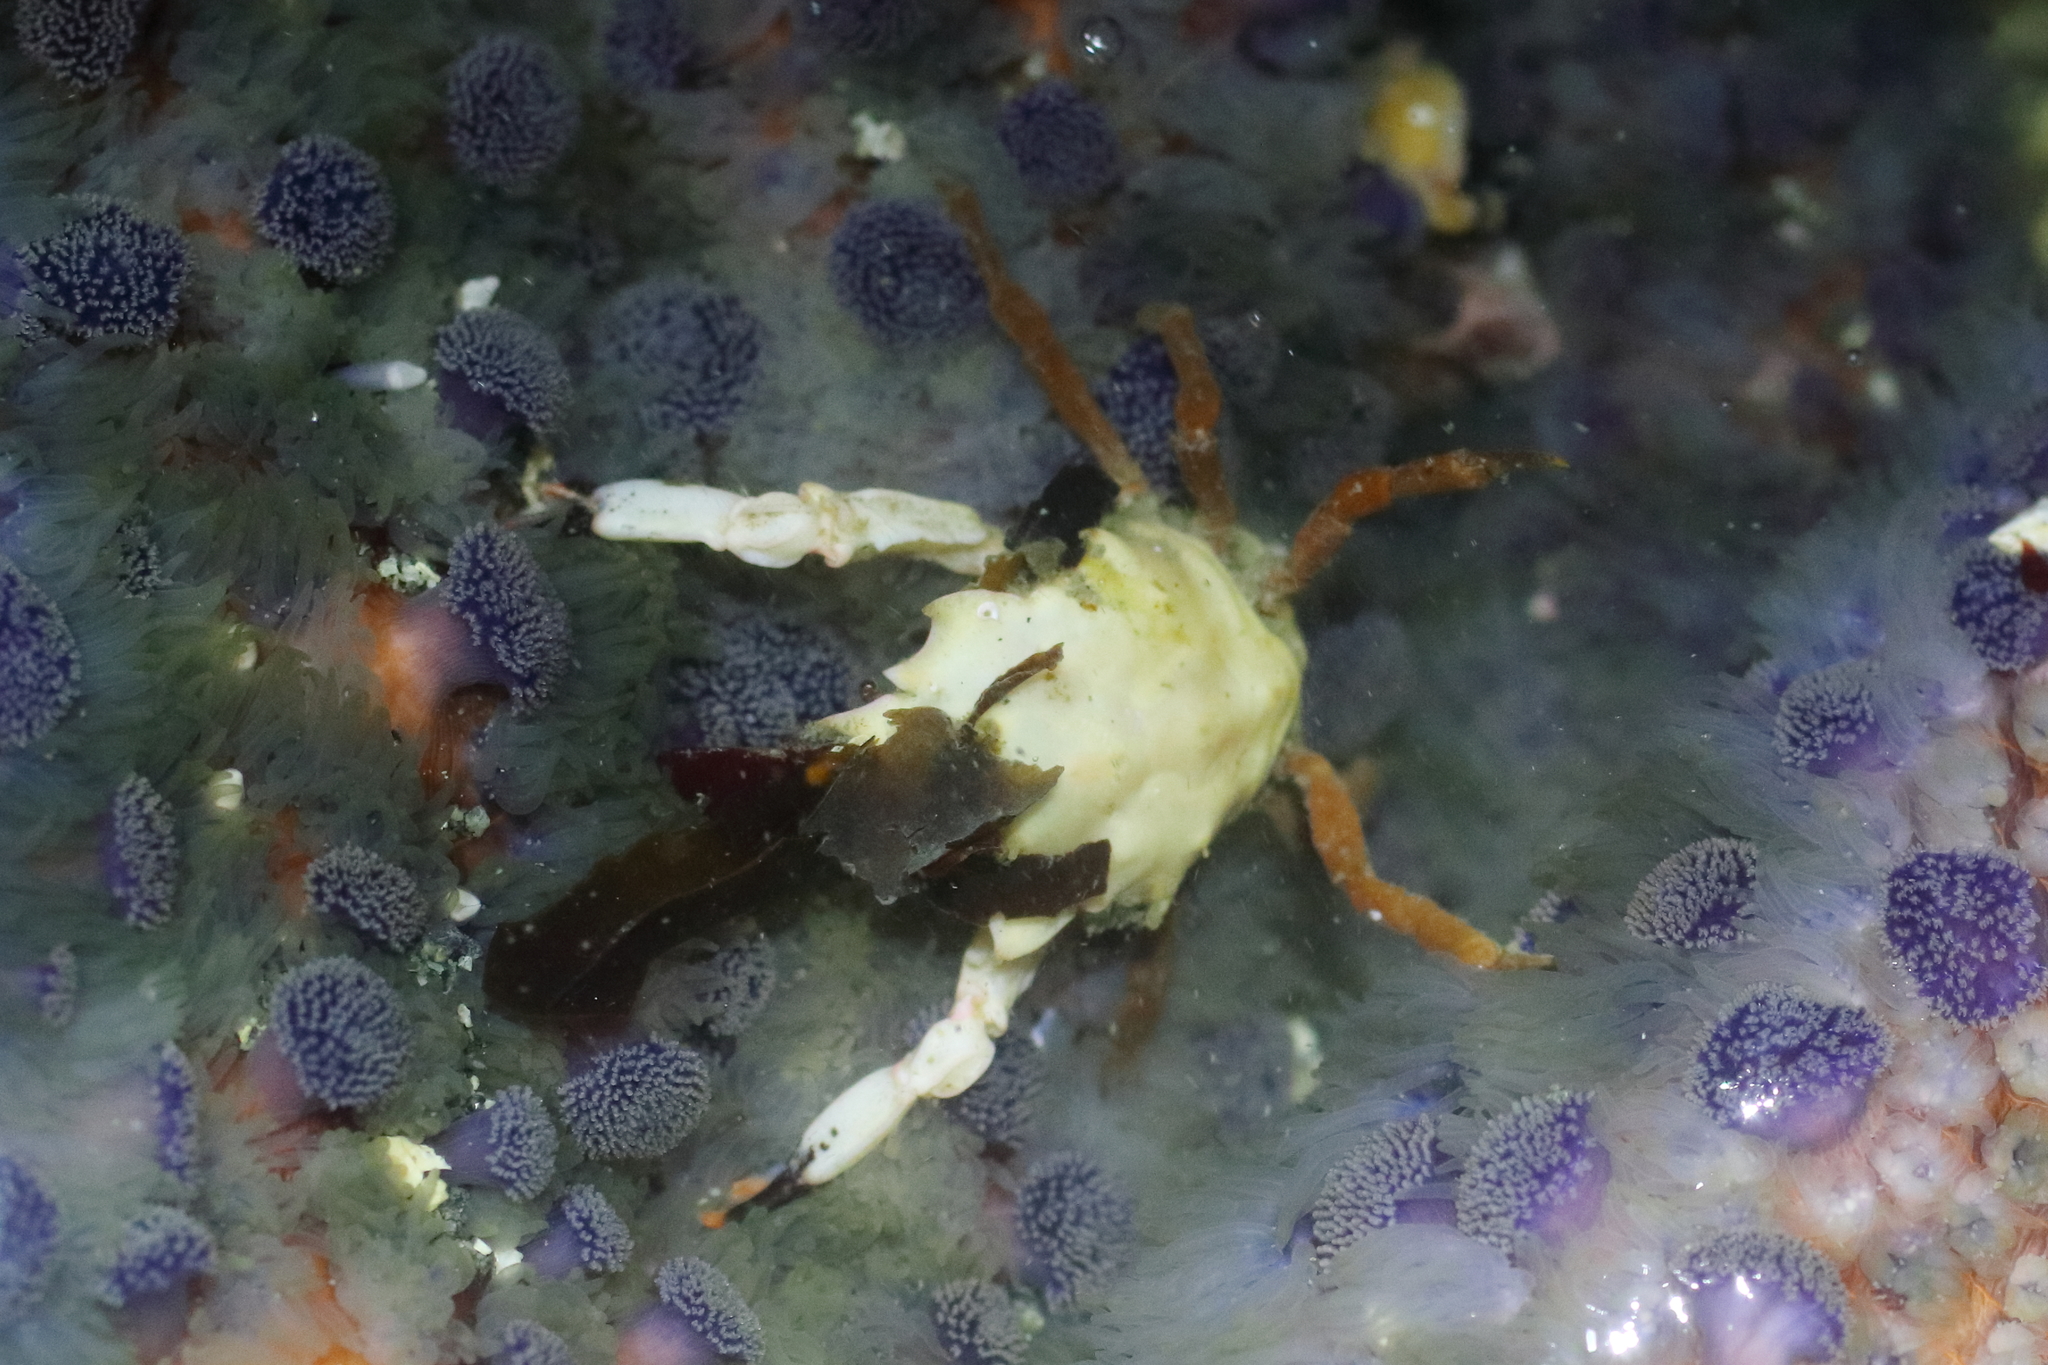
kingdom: Animalia
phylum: Arthropoda
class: Malacostraca
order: Decapoda
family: Epialtidae
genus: Pugettia
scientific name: Pugettia gracilis
